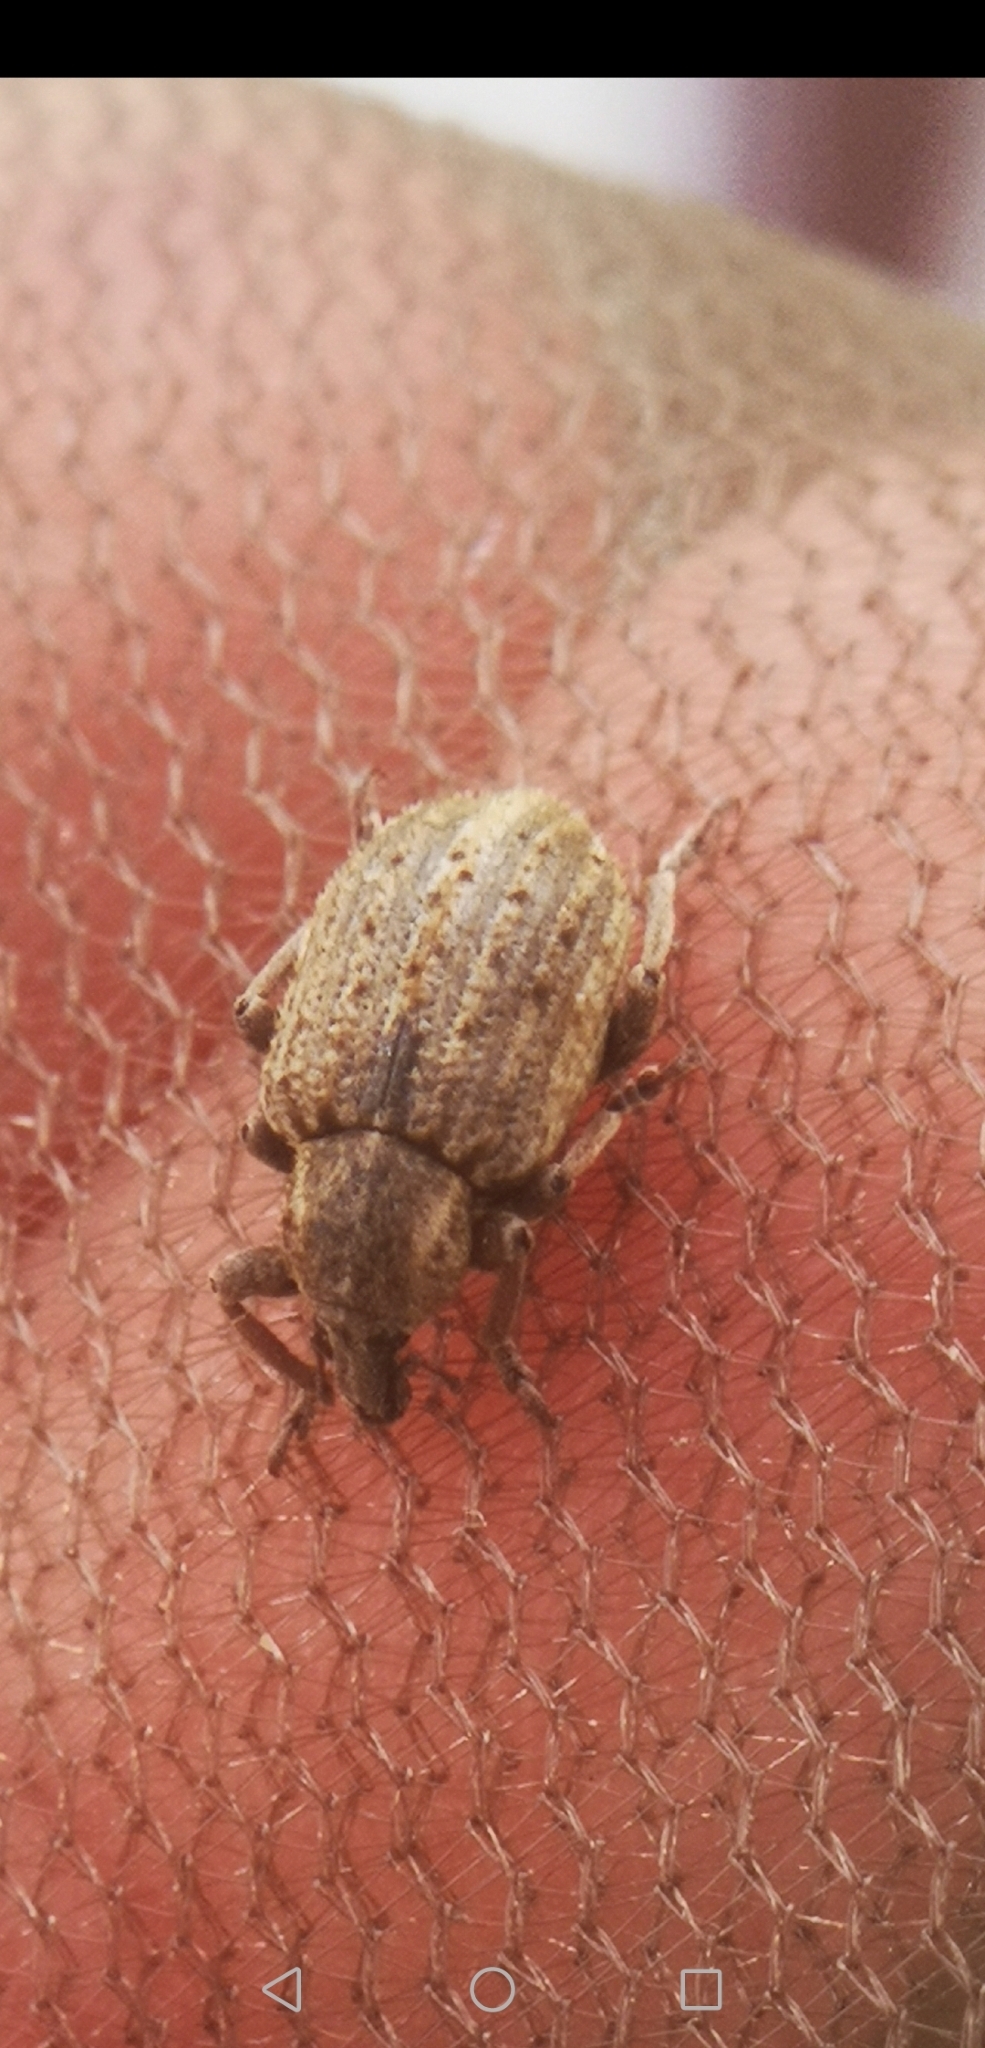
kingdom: Animalia
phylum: Arthropoda
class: Insecta
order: Coleoptera
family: Curculionidae
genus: Brachypera
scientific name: Brachypera zoilus
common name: Clover leaf weevil
